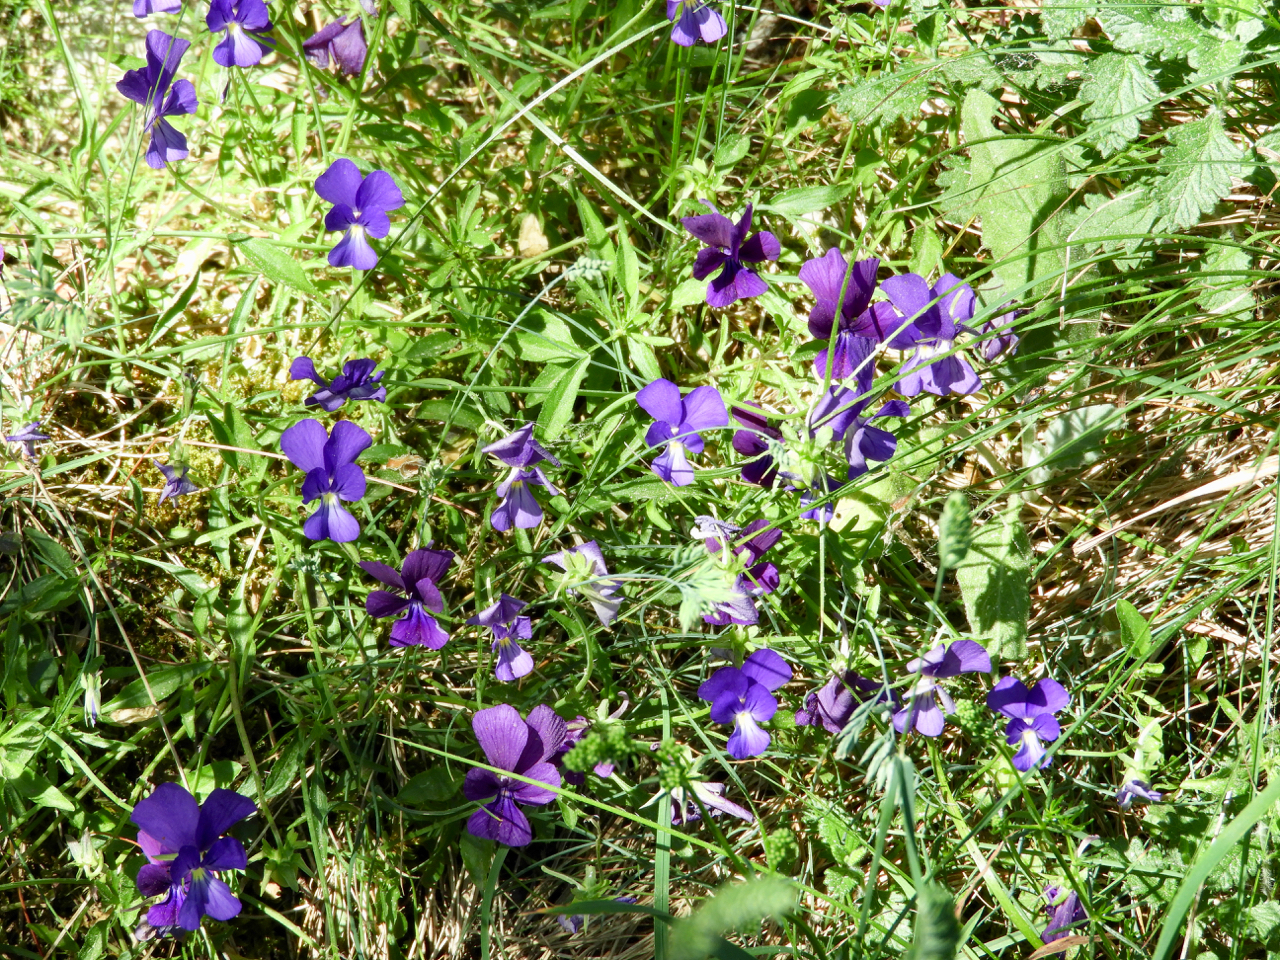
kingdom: Plantae
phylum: Tracheophyta
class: Magnoliopsida
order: Malpighiales
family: Violaceae
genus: Viola
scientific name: Viola etrusca
